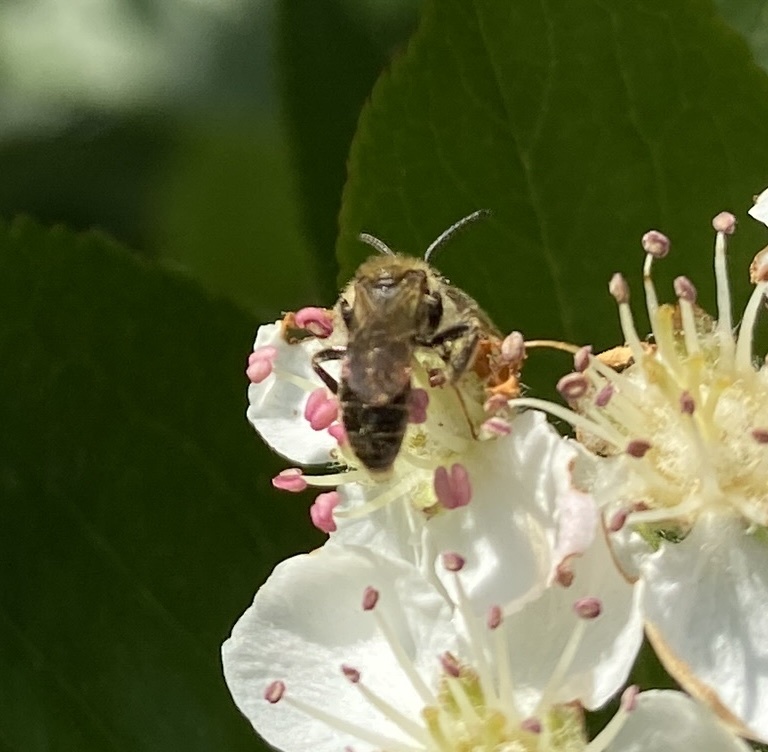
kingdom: Animalia
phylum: Arthropoda
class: Insecta
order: Hymenoptera
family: Andrenidae
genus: Andrena
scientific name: Andrena miserabilis
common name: Miserable mining bee
